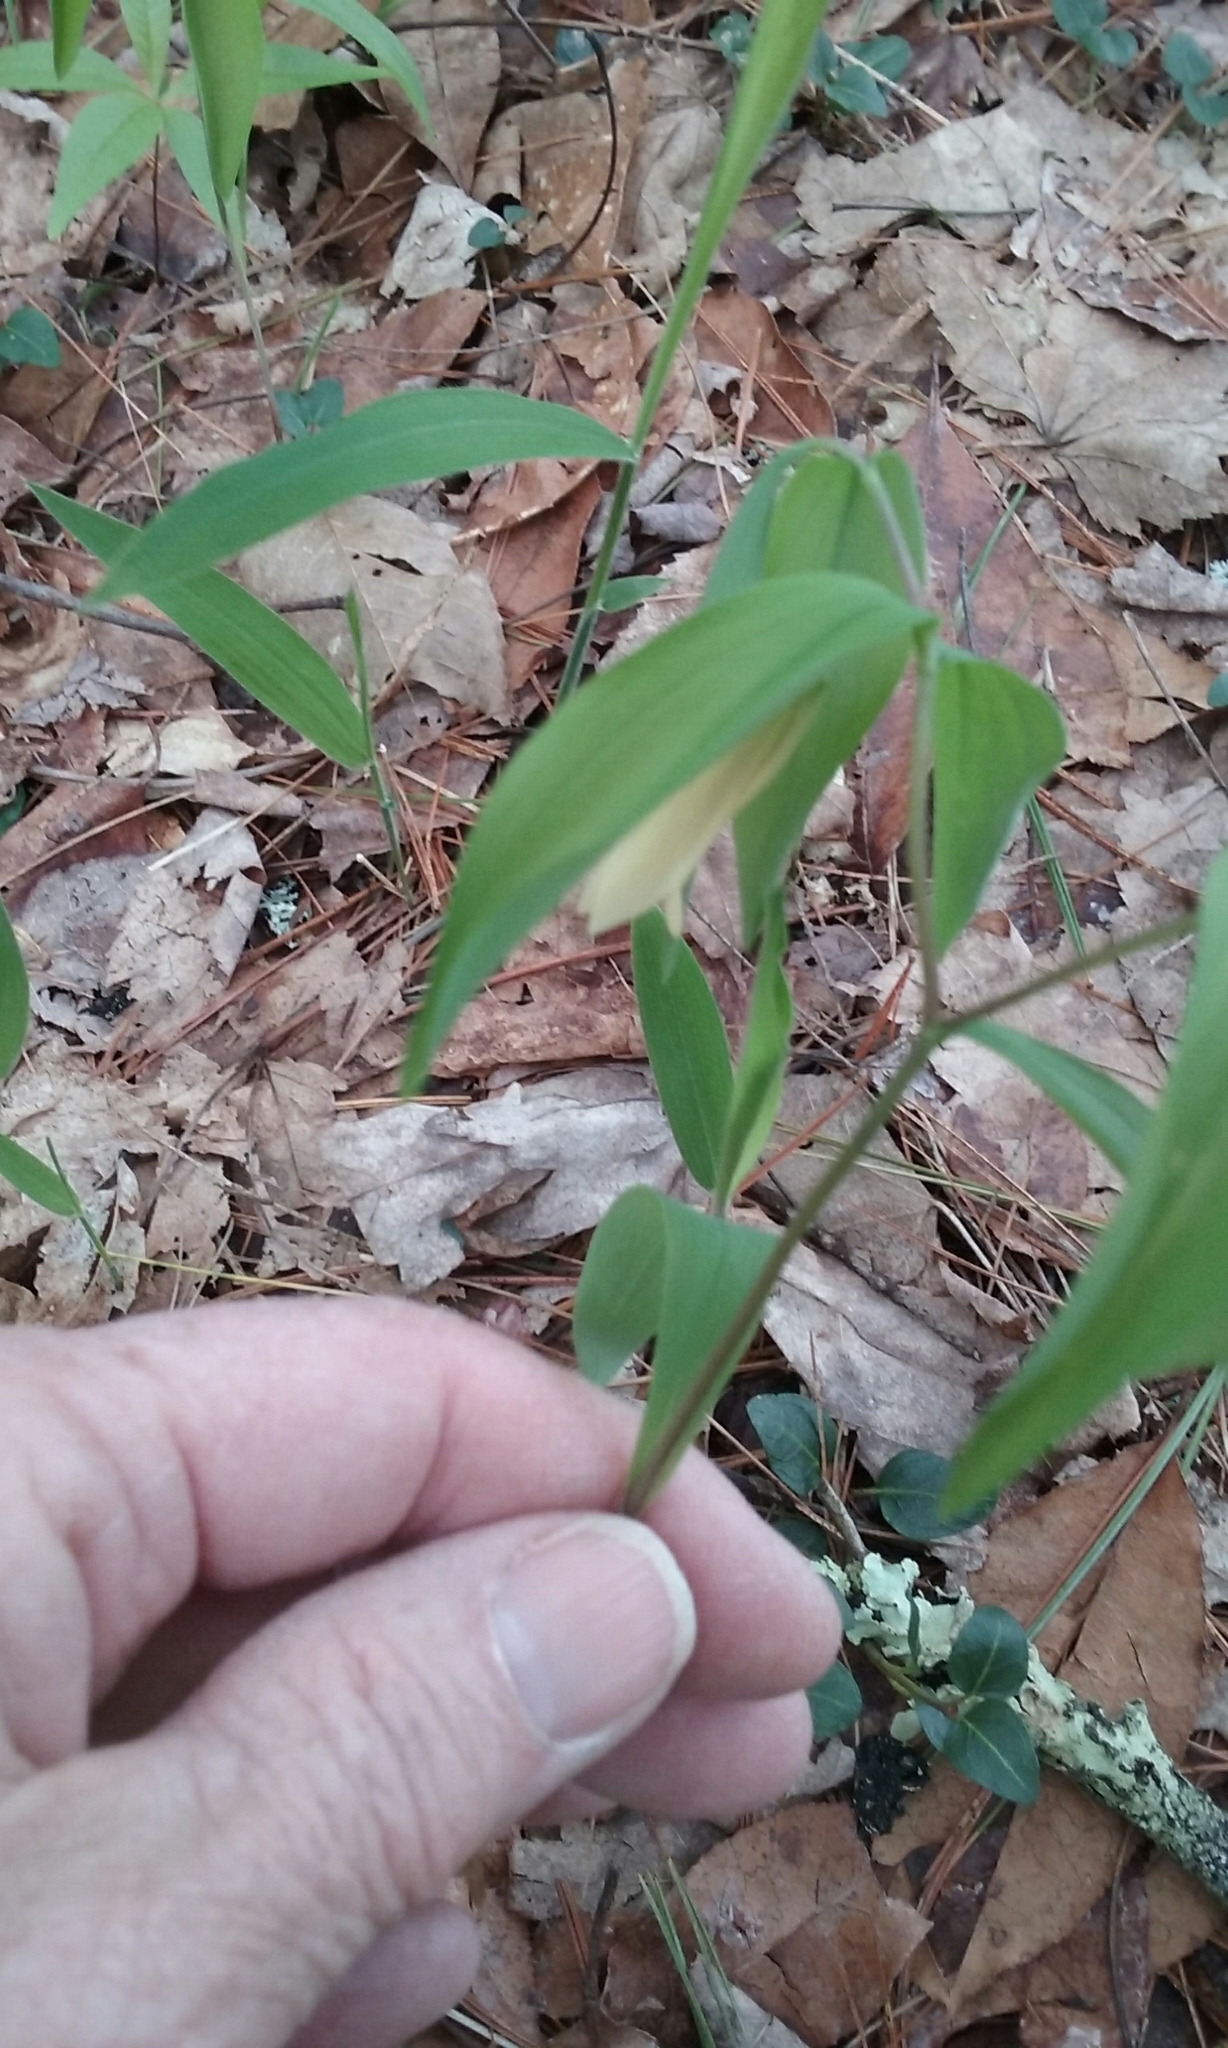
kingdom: Plantae
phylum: Tracheophyta
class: Liliopsida
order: Liliales
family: Colchicaceae
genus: Uvularia
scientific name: Uvularia sessilifolia
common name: Straw-lily
